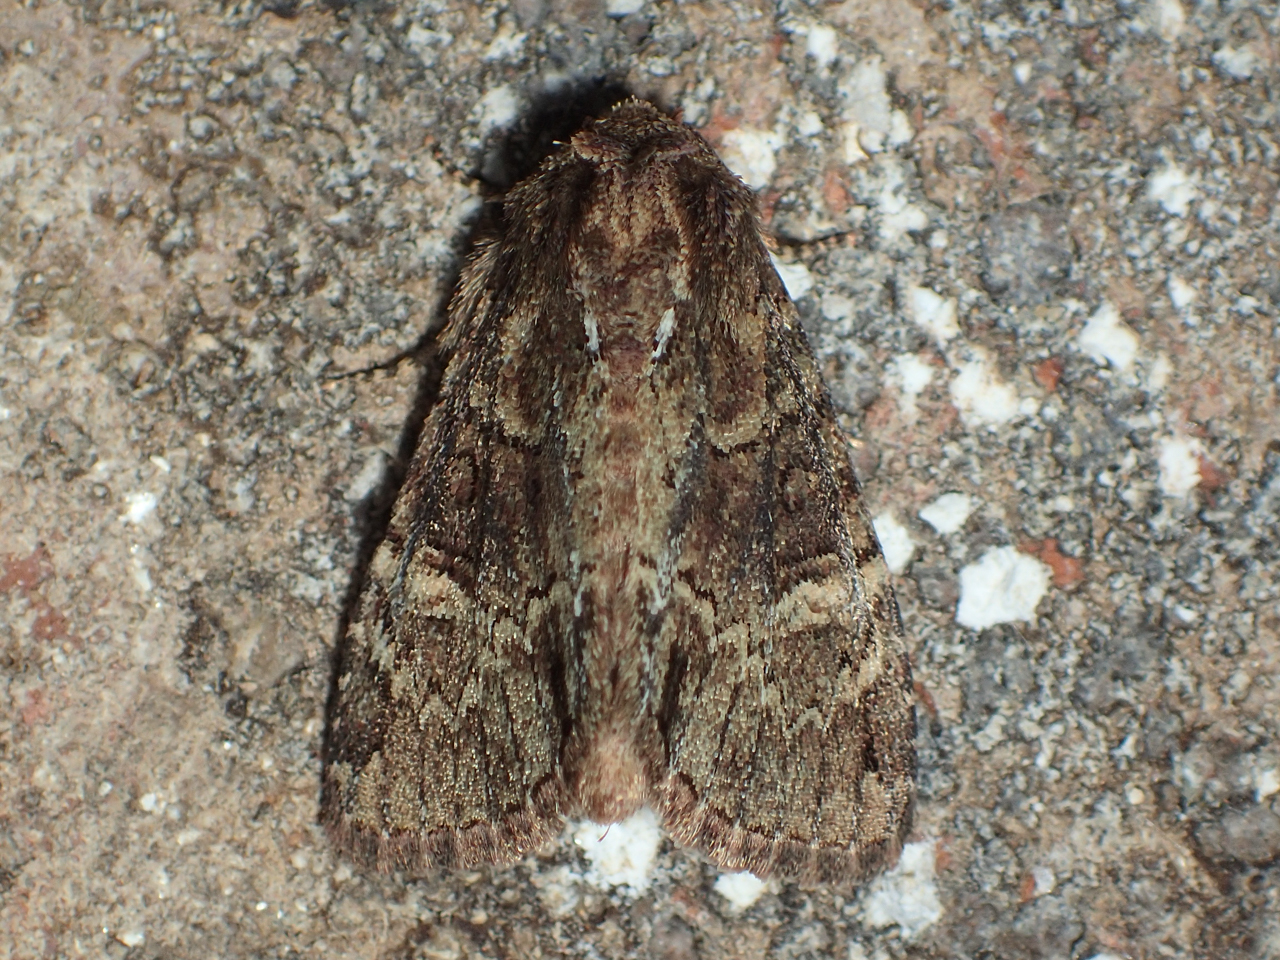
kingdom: Animalia
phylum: Arthropoda
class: Insecta
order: Lepidoptera
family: Noctuidae
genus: Phosphila
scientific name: Phosphila turbulenta
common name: Turbulent phosphila moth
